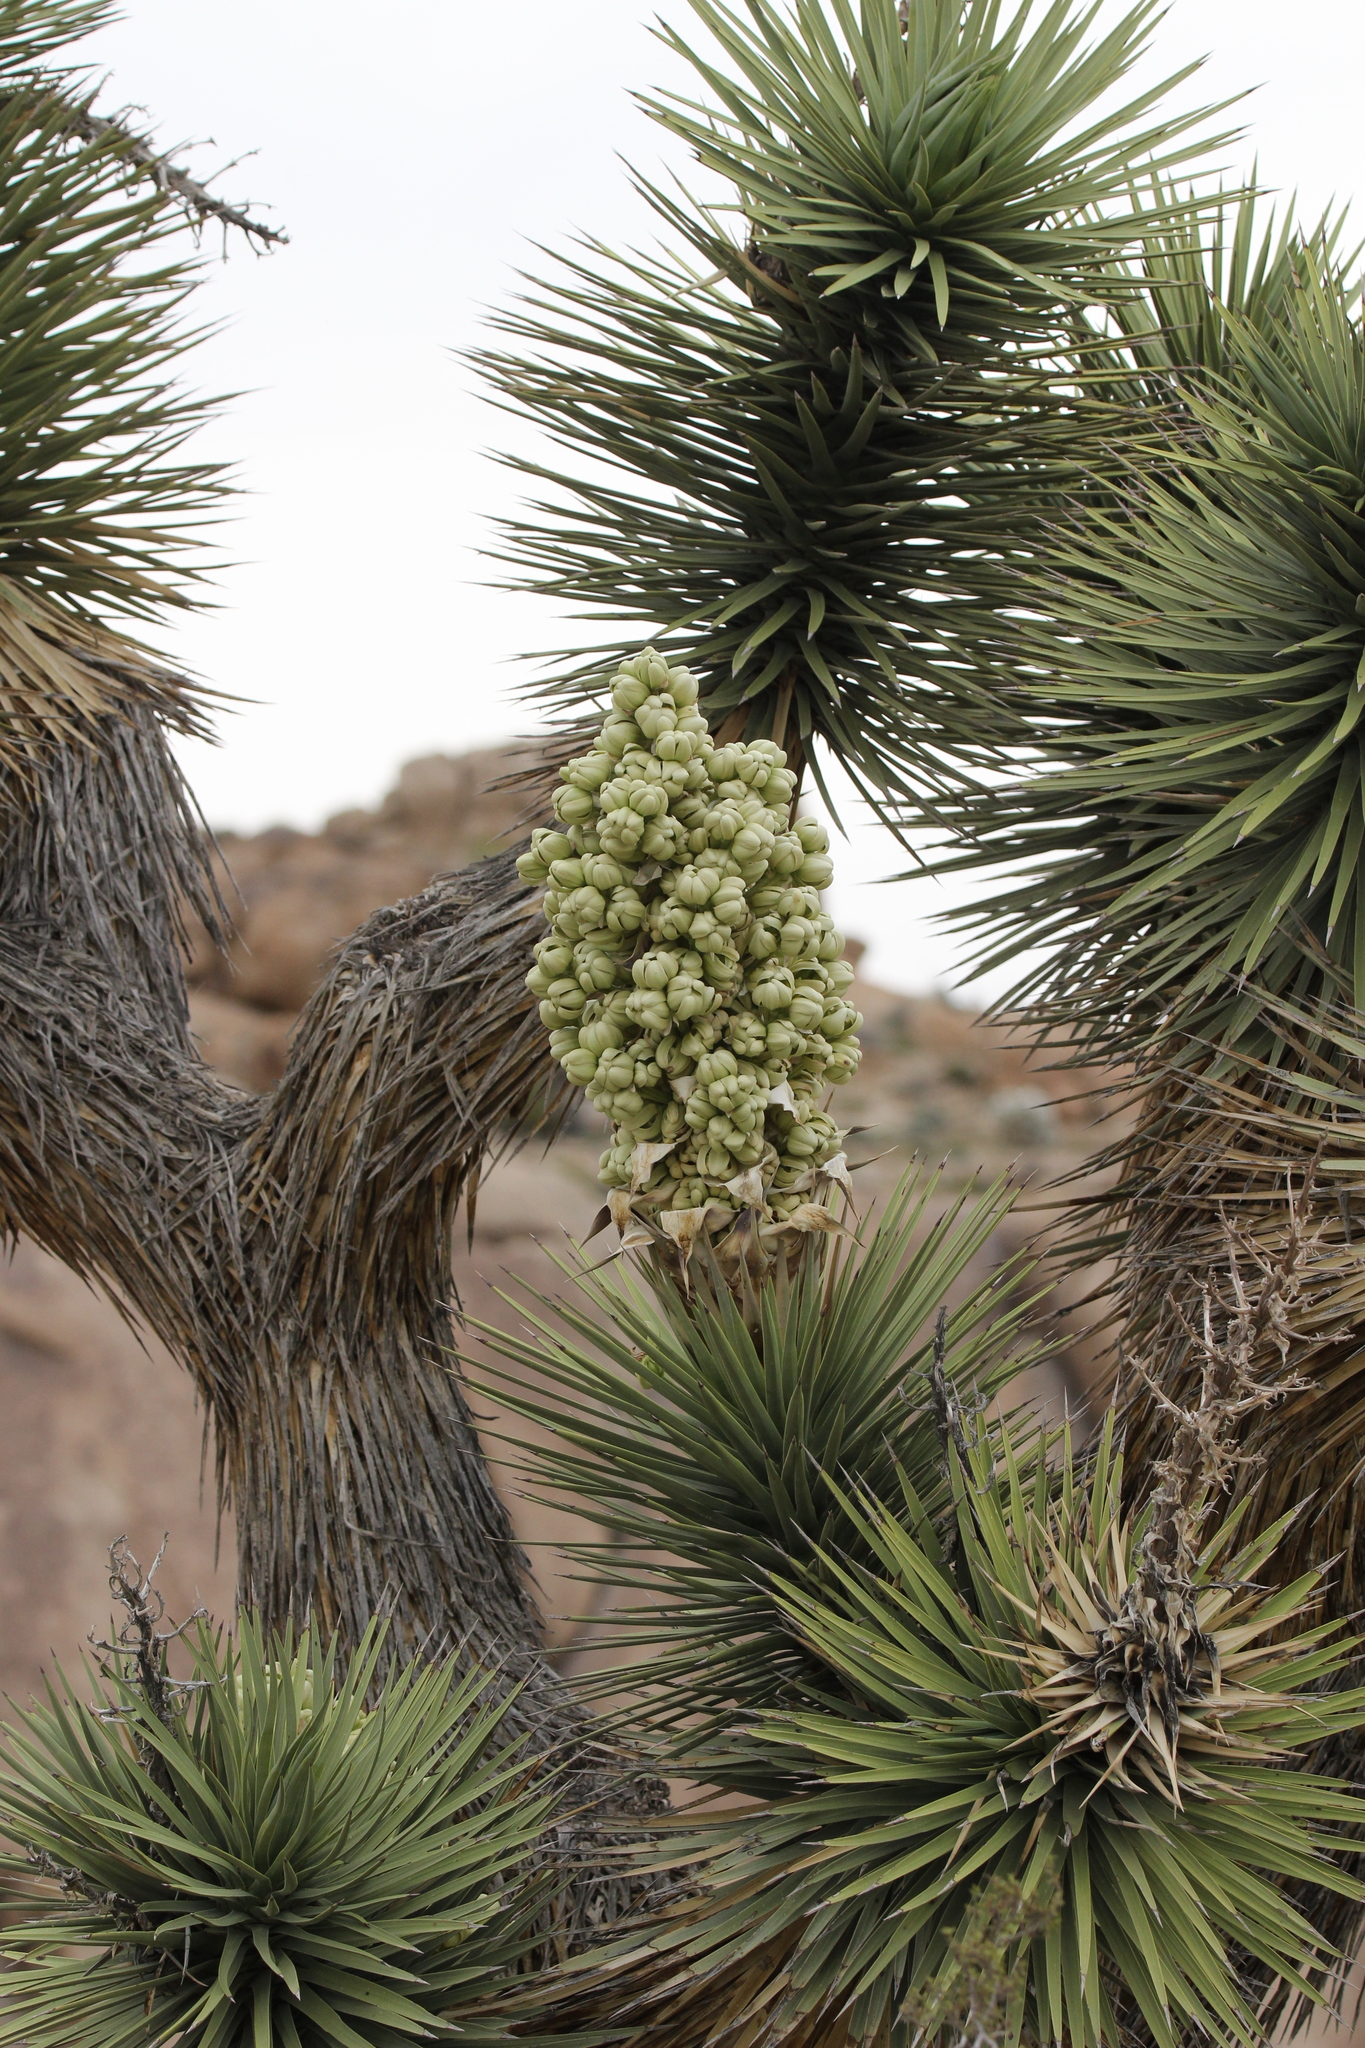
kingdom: Plantae
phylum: Tracheophyta
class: Liliopsida
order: Asparagales
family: Asparagaceae
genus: Yucca
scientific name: Yucca brevifolia
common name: Joshua tree
